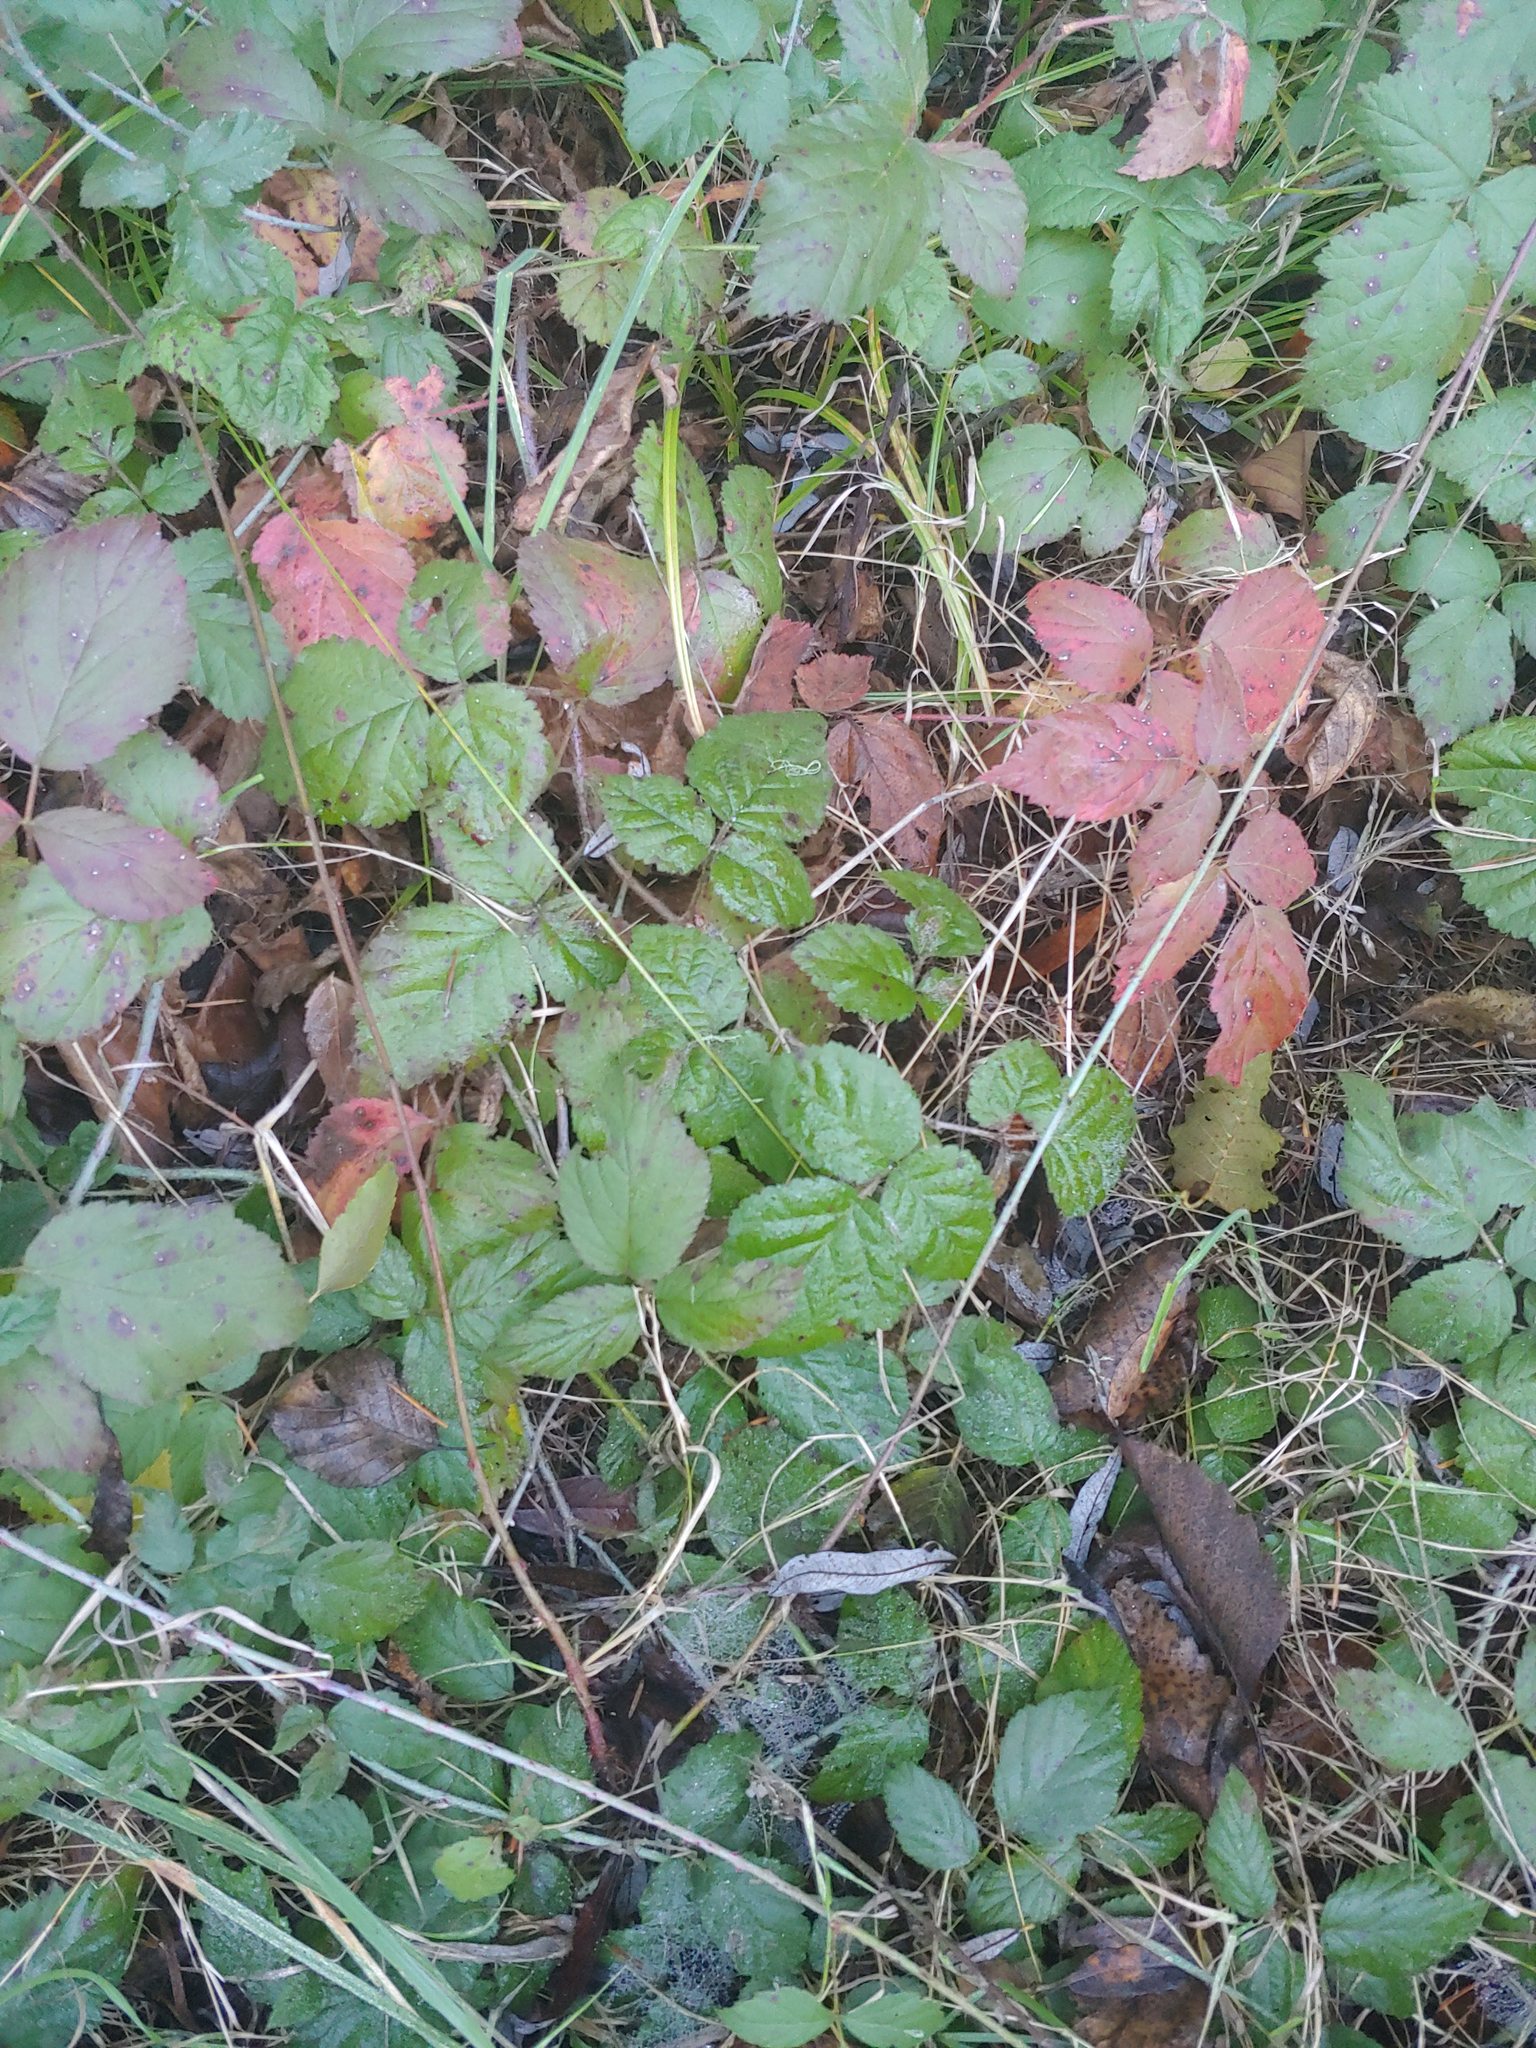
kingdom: Plantae
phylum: Tracheophyta
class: Magnoliopsida
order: Rosales
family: Rosaceae
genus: Rubus
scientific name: Rubus ursinus
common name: Pacific blackberry
